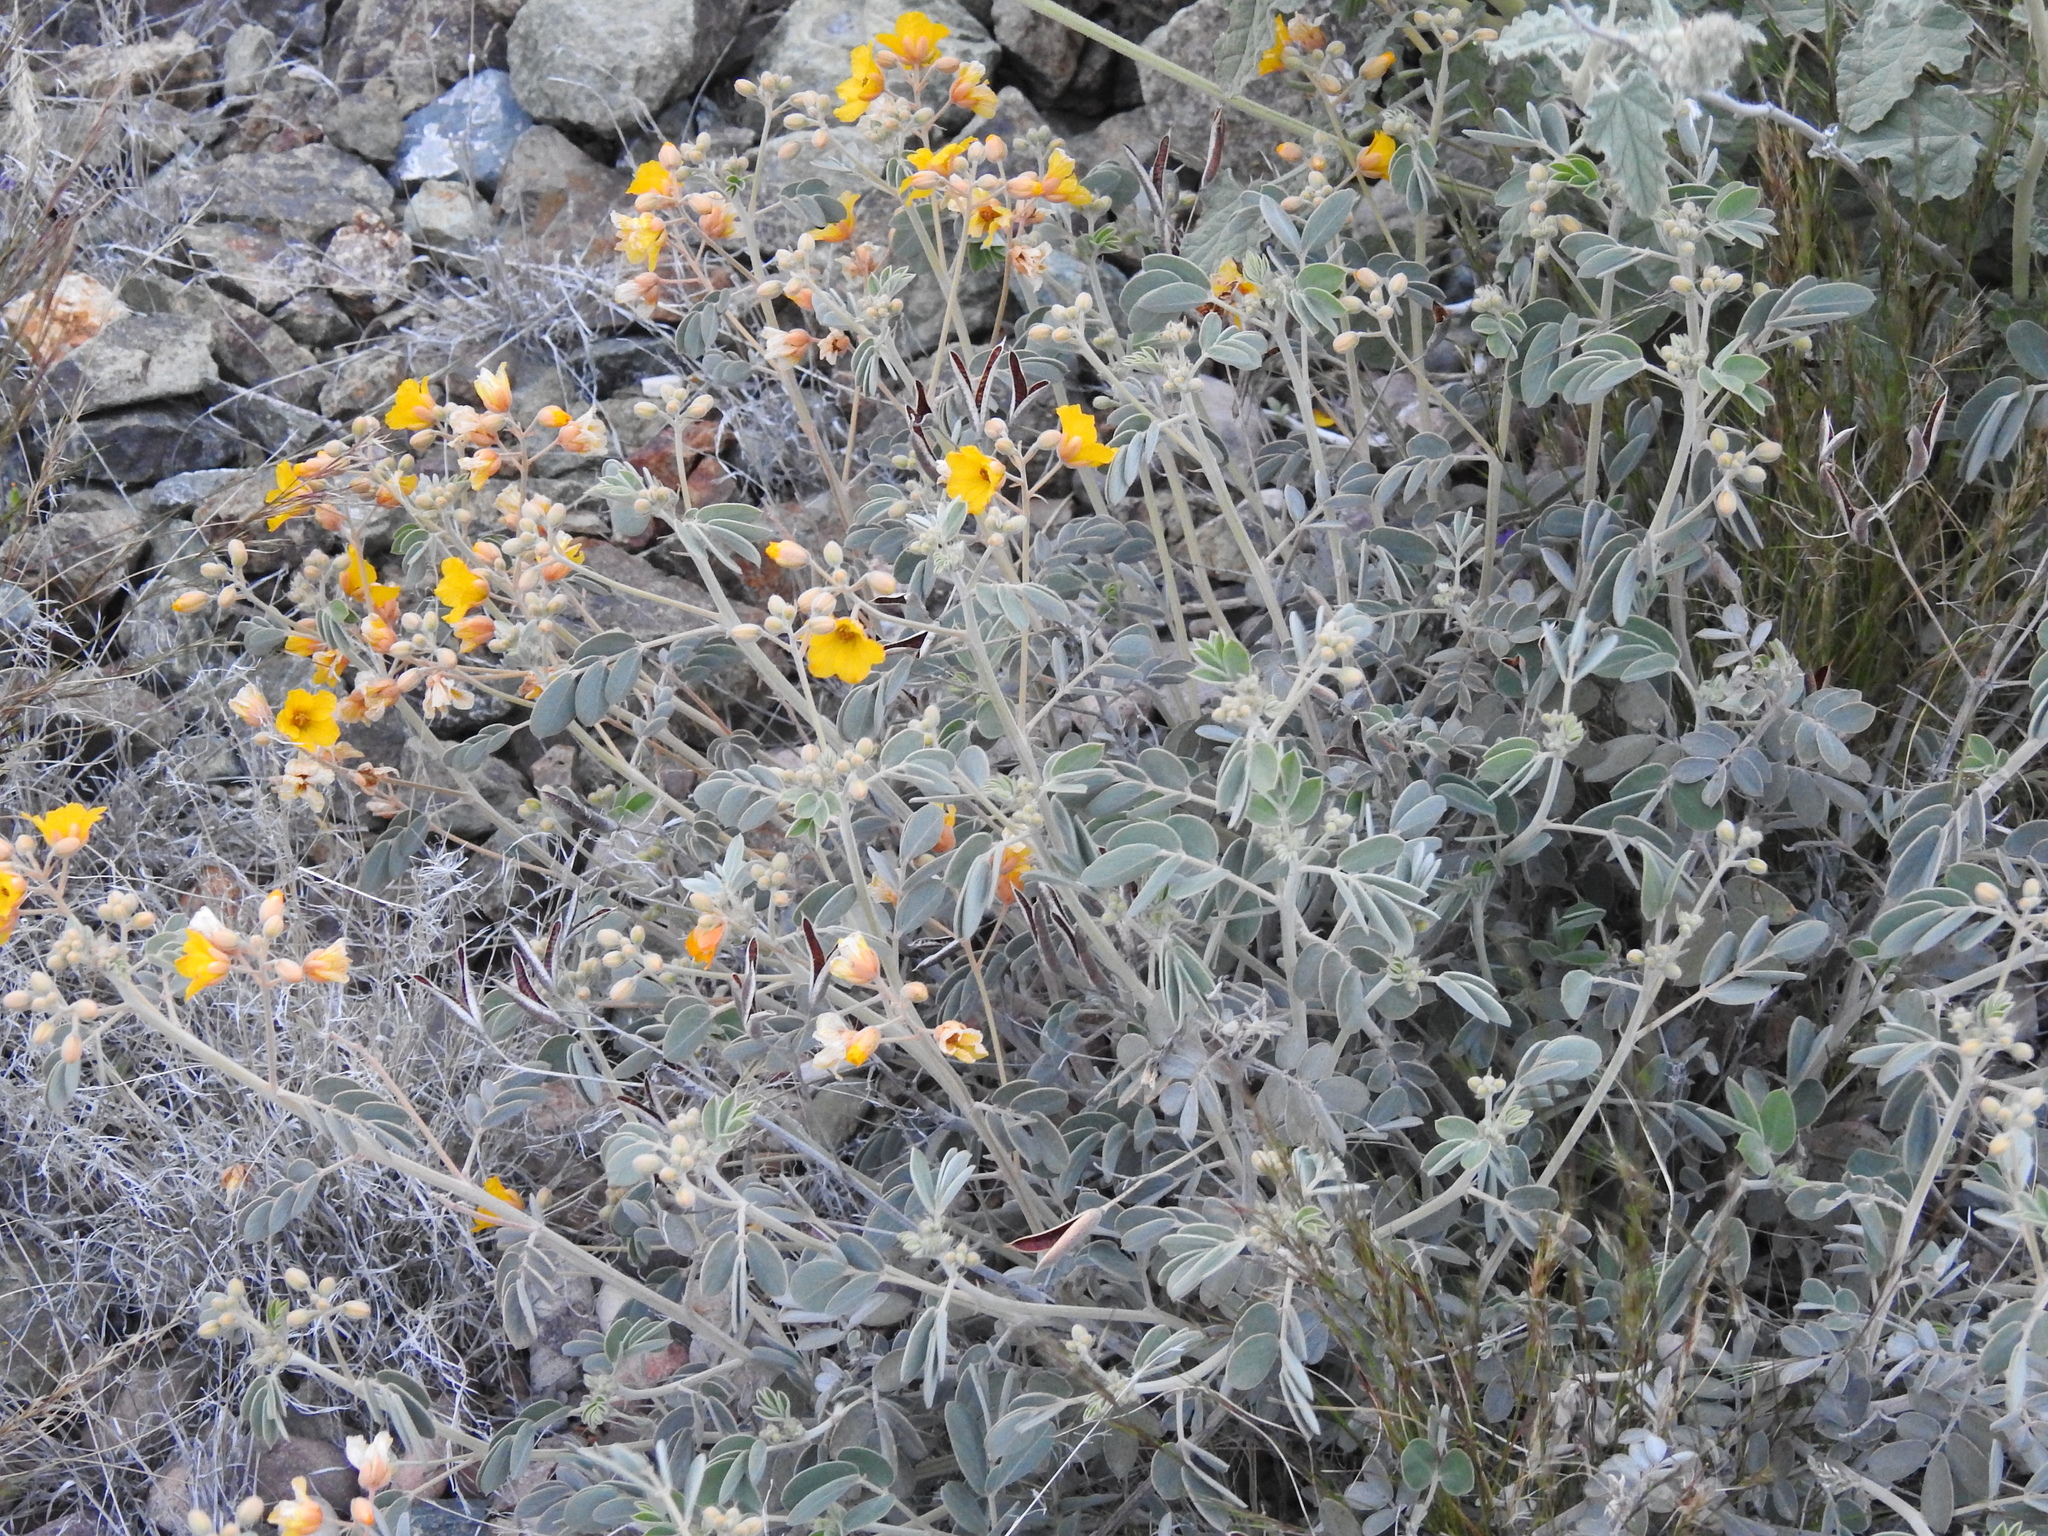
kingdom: Plantae
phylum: Tracheophyta
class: Magnoliopsida
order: Fabales
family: Fabaceae
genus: Senna
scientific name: Senna covesii
